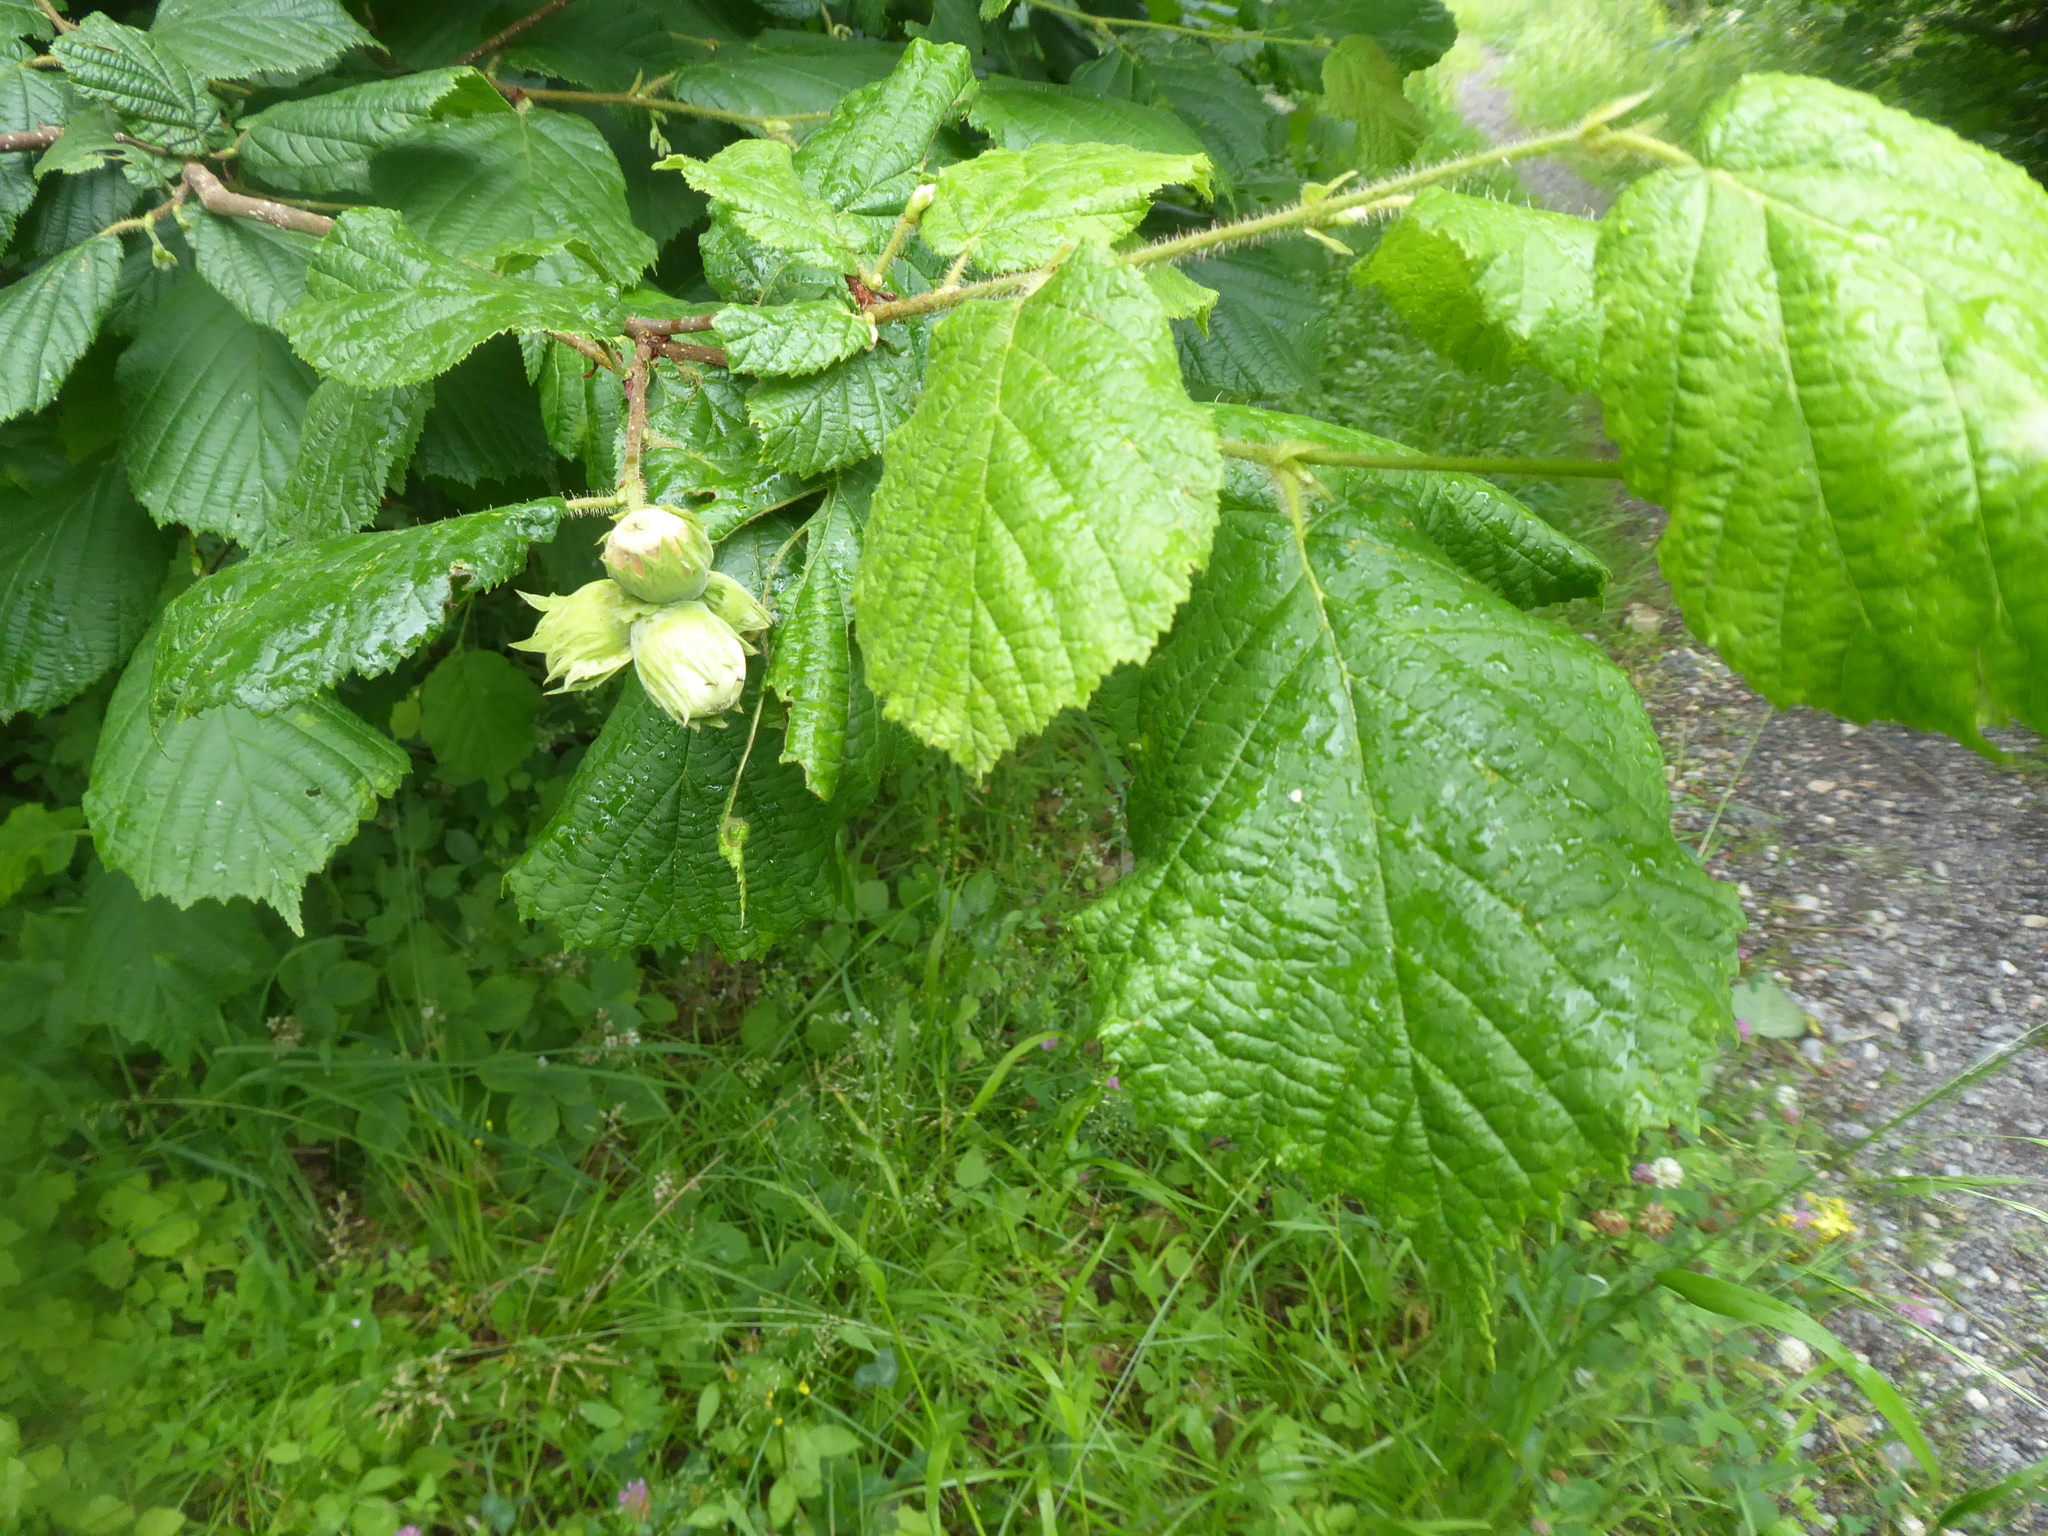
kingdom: Plantae
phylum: Tracheophyta
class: Magnoliopsida
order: Fagales
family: Betulaceae
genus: Corylus
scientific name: Corylus avellana
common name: European hazel
